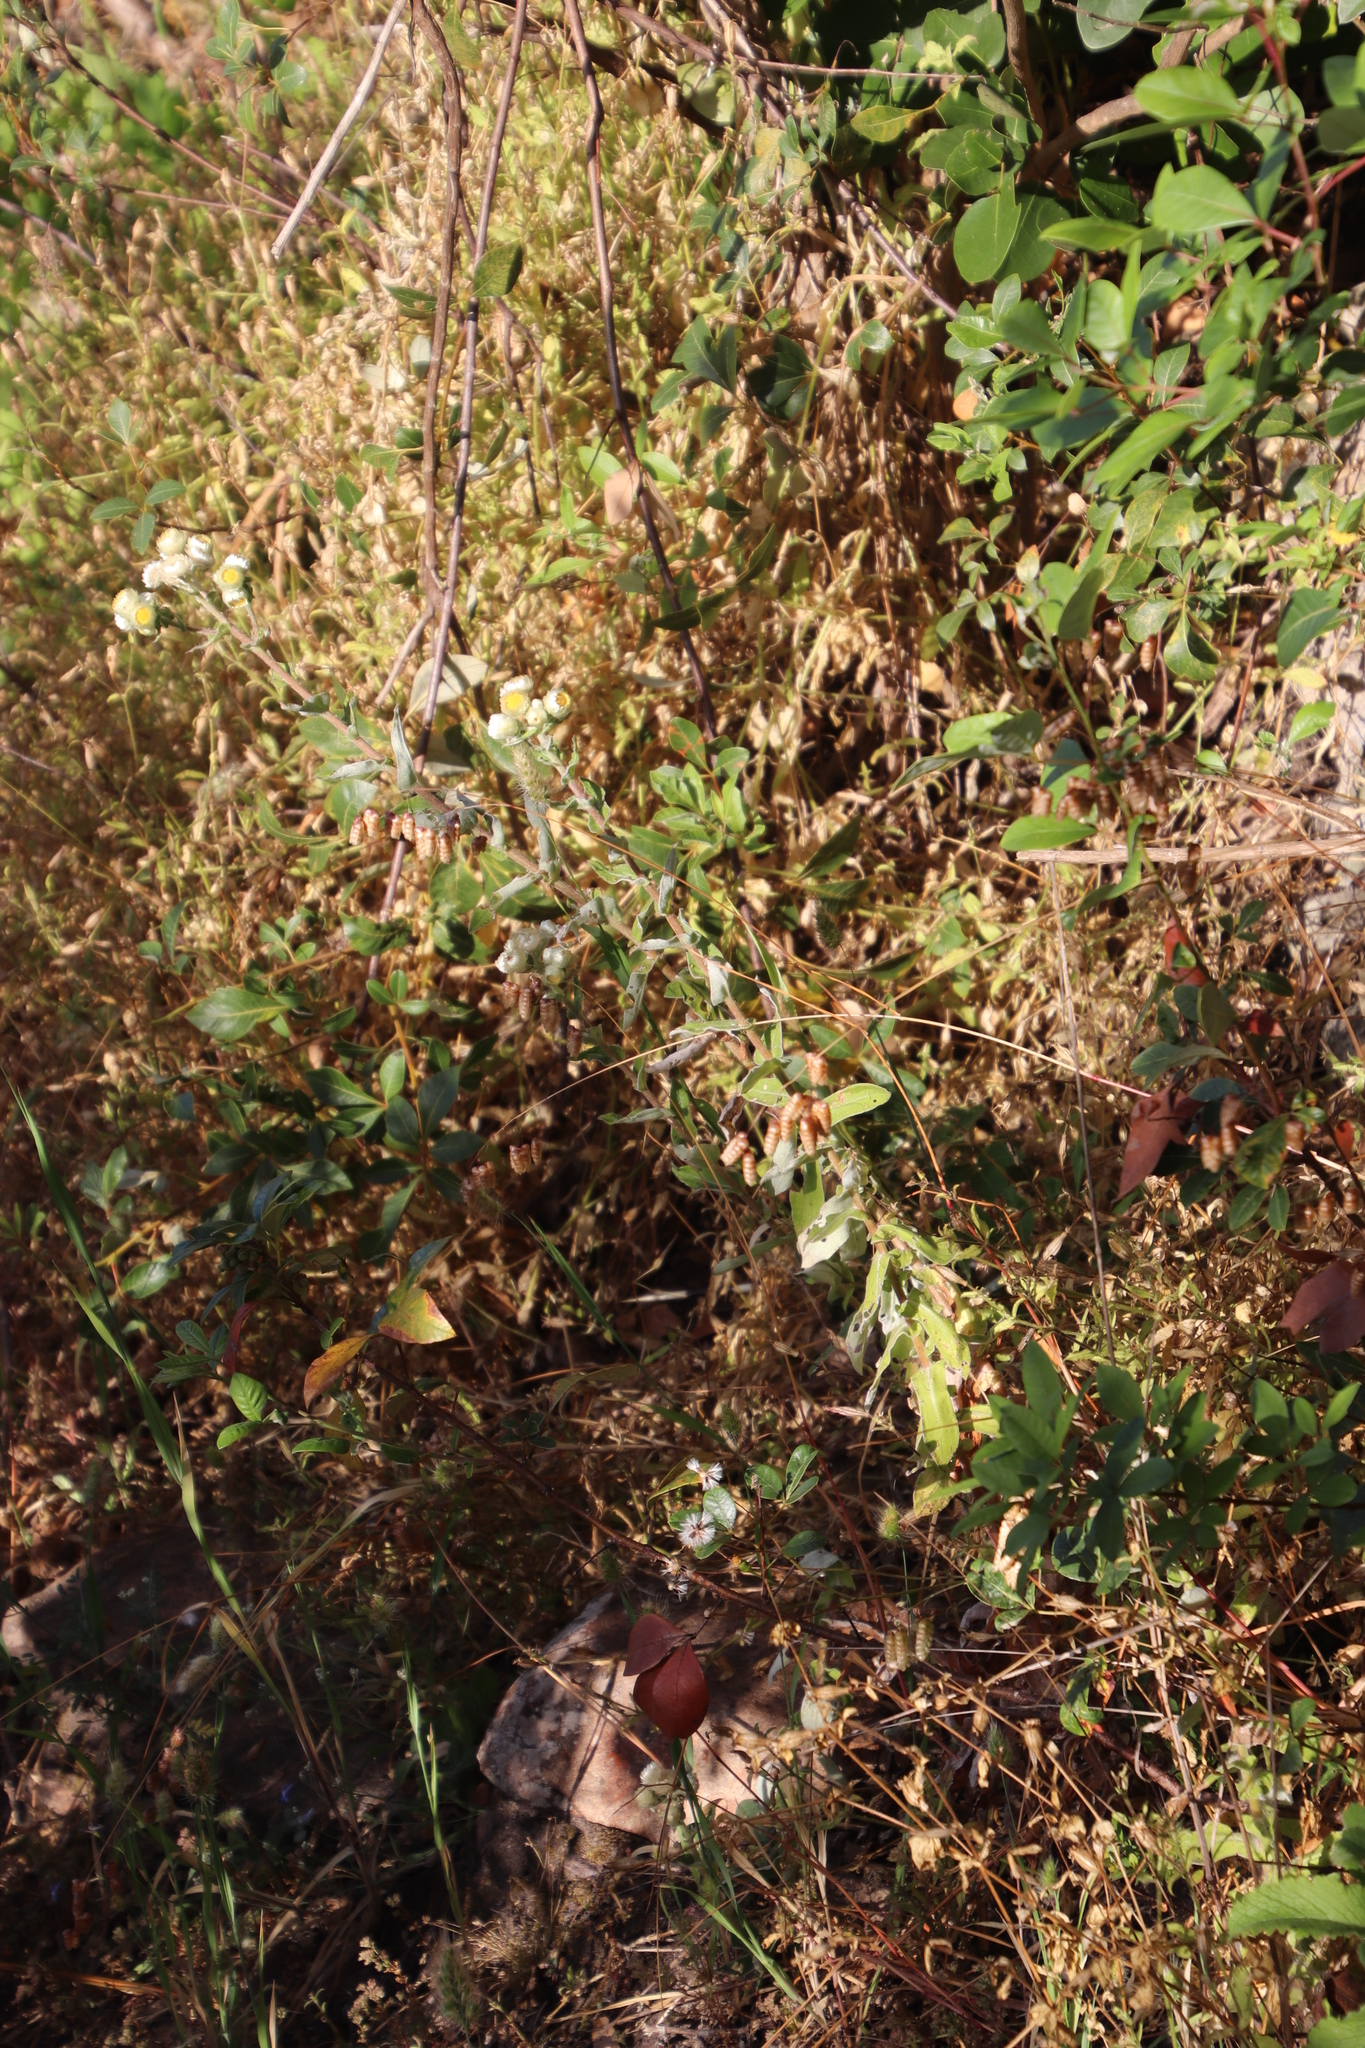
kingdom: Plantae
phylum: Tracheophyta
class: Magnoliopsida
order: Asterales
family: Asteraceae
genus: Helichrysum
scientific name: Helichrysum foetidum
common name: Stinking everlasting
